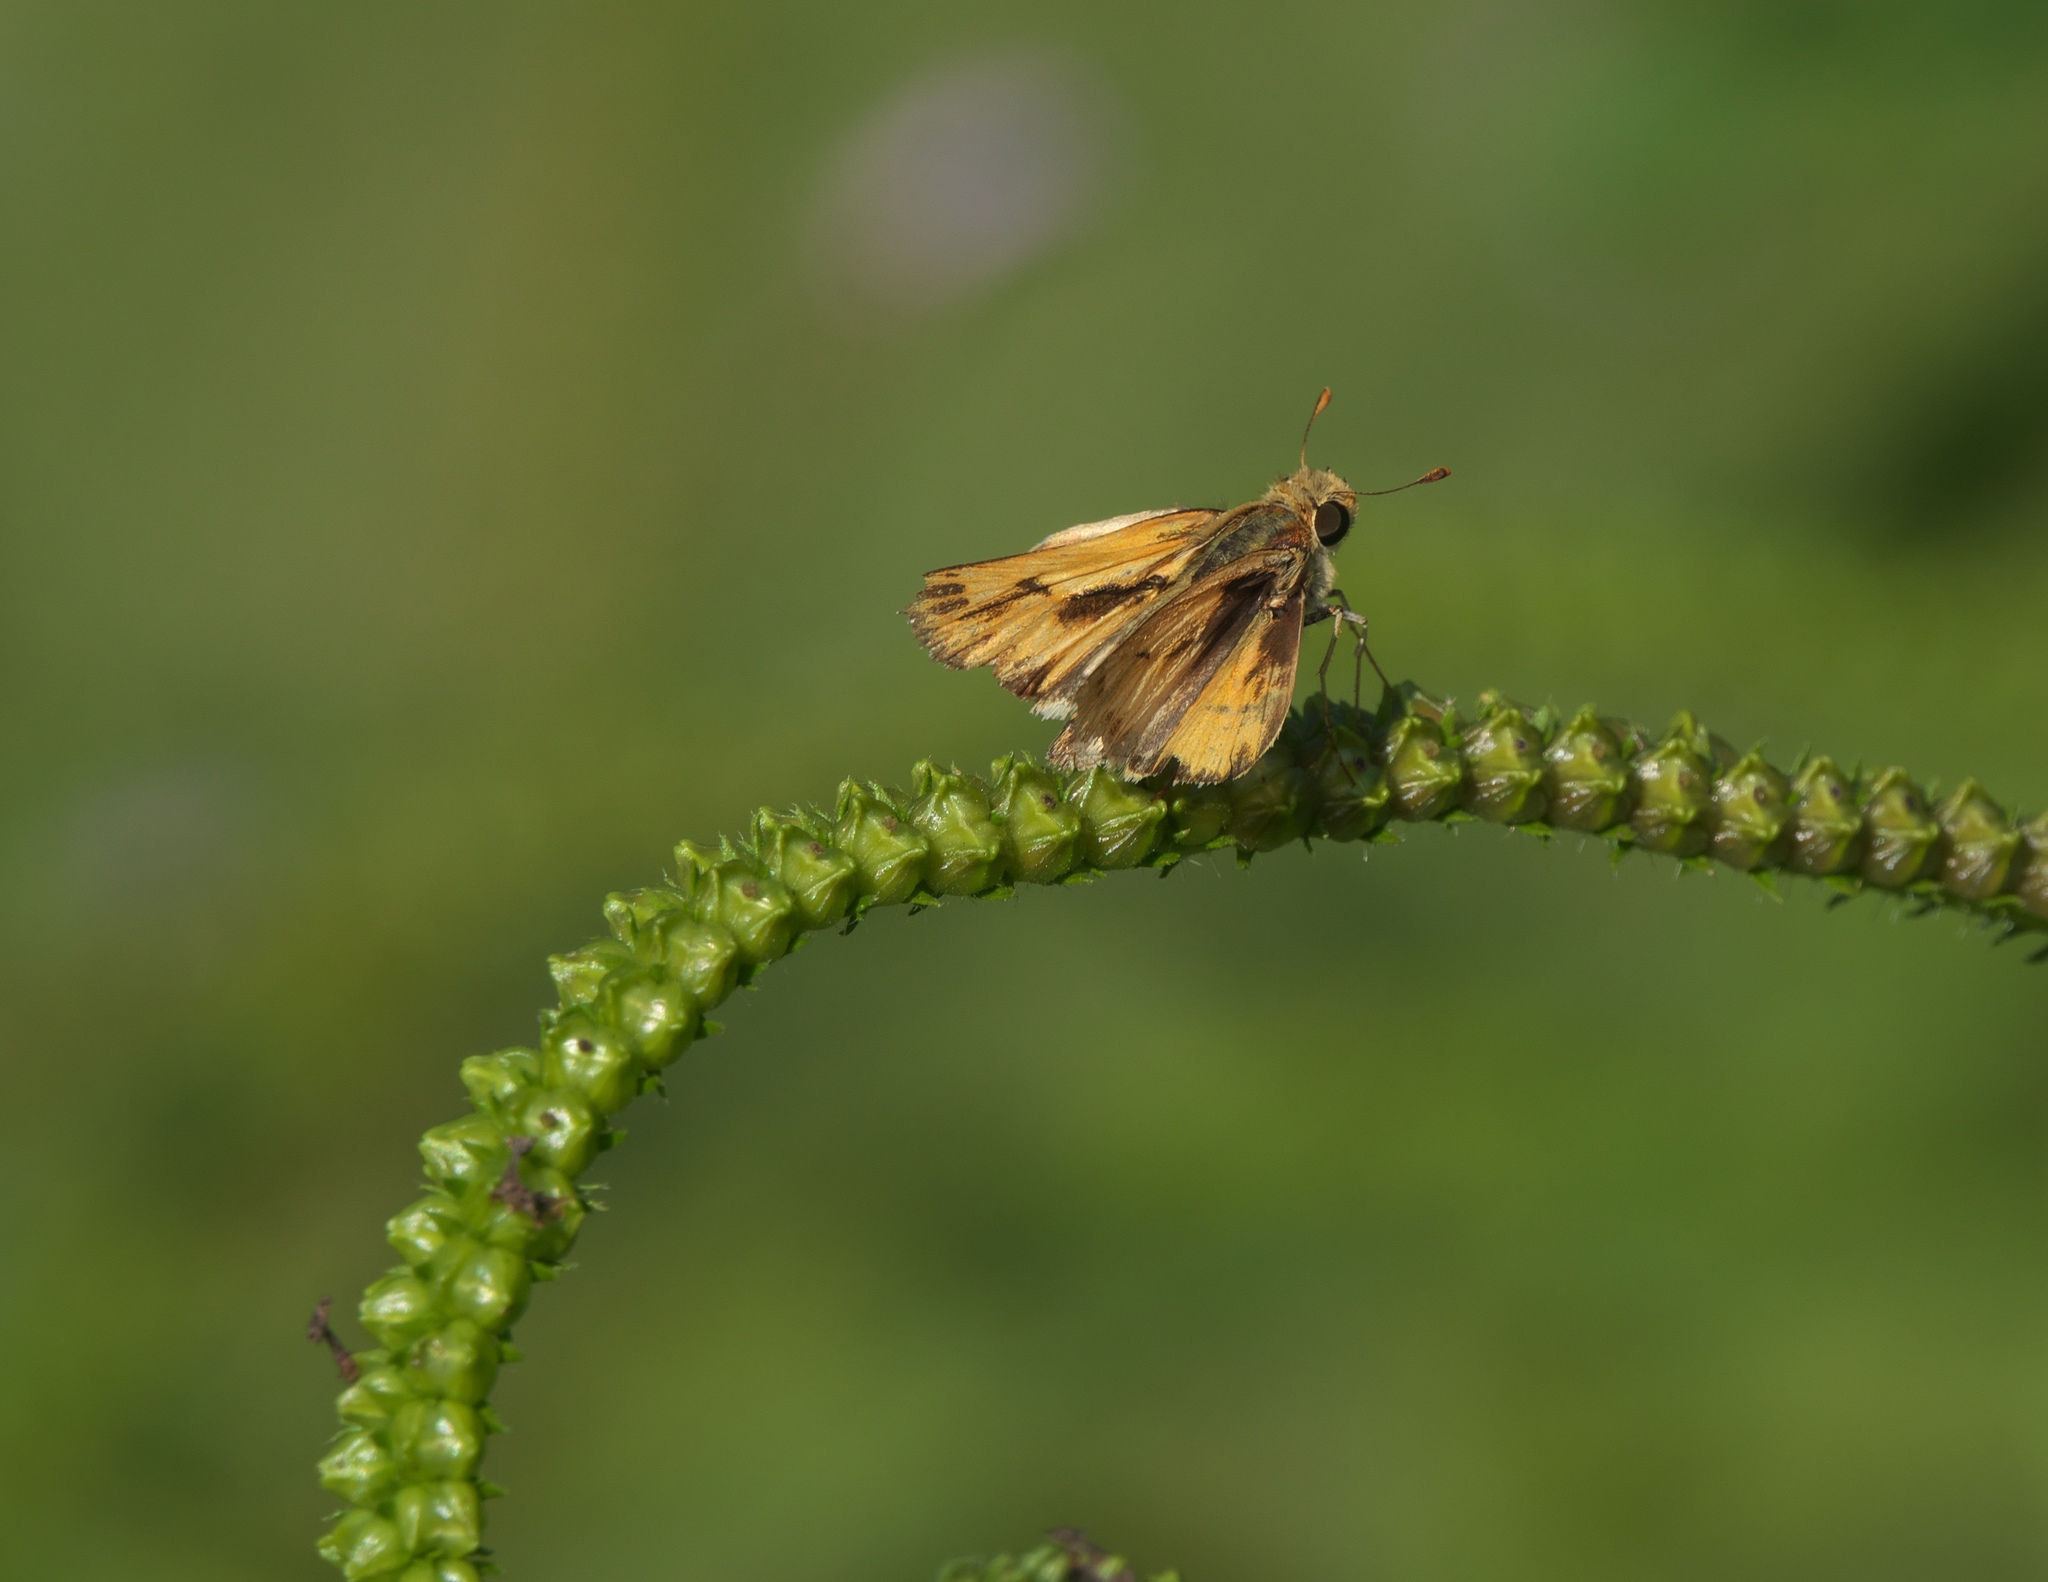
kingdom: Animalia
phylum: Arthropoda
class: Insecta
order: Lepidoptera
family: Hesperiidae
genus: Hylephila
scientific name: Hylephila phyleus
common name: Fiery skipper
